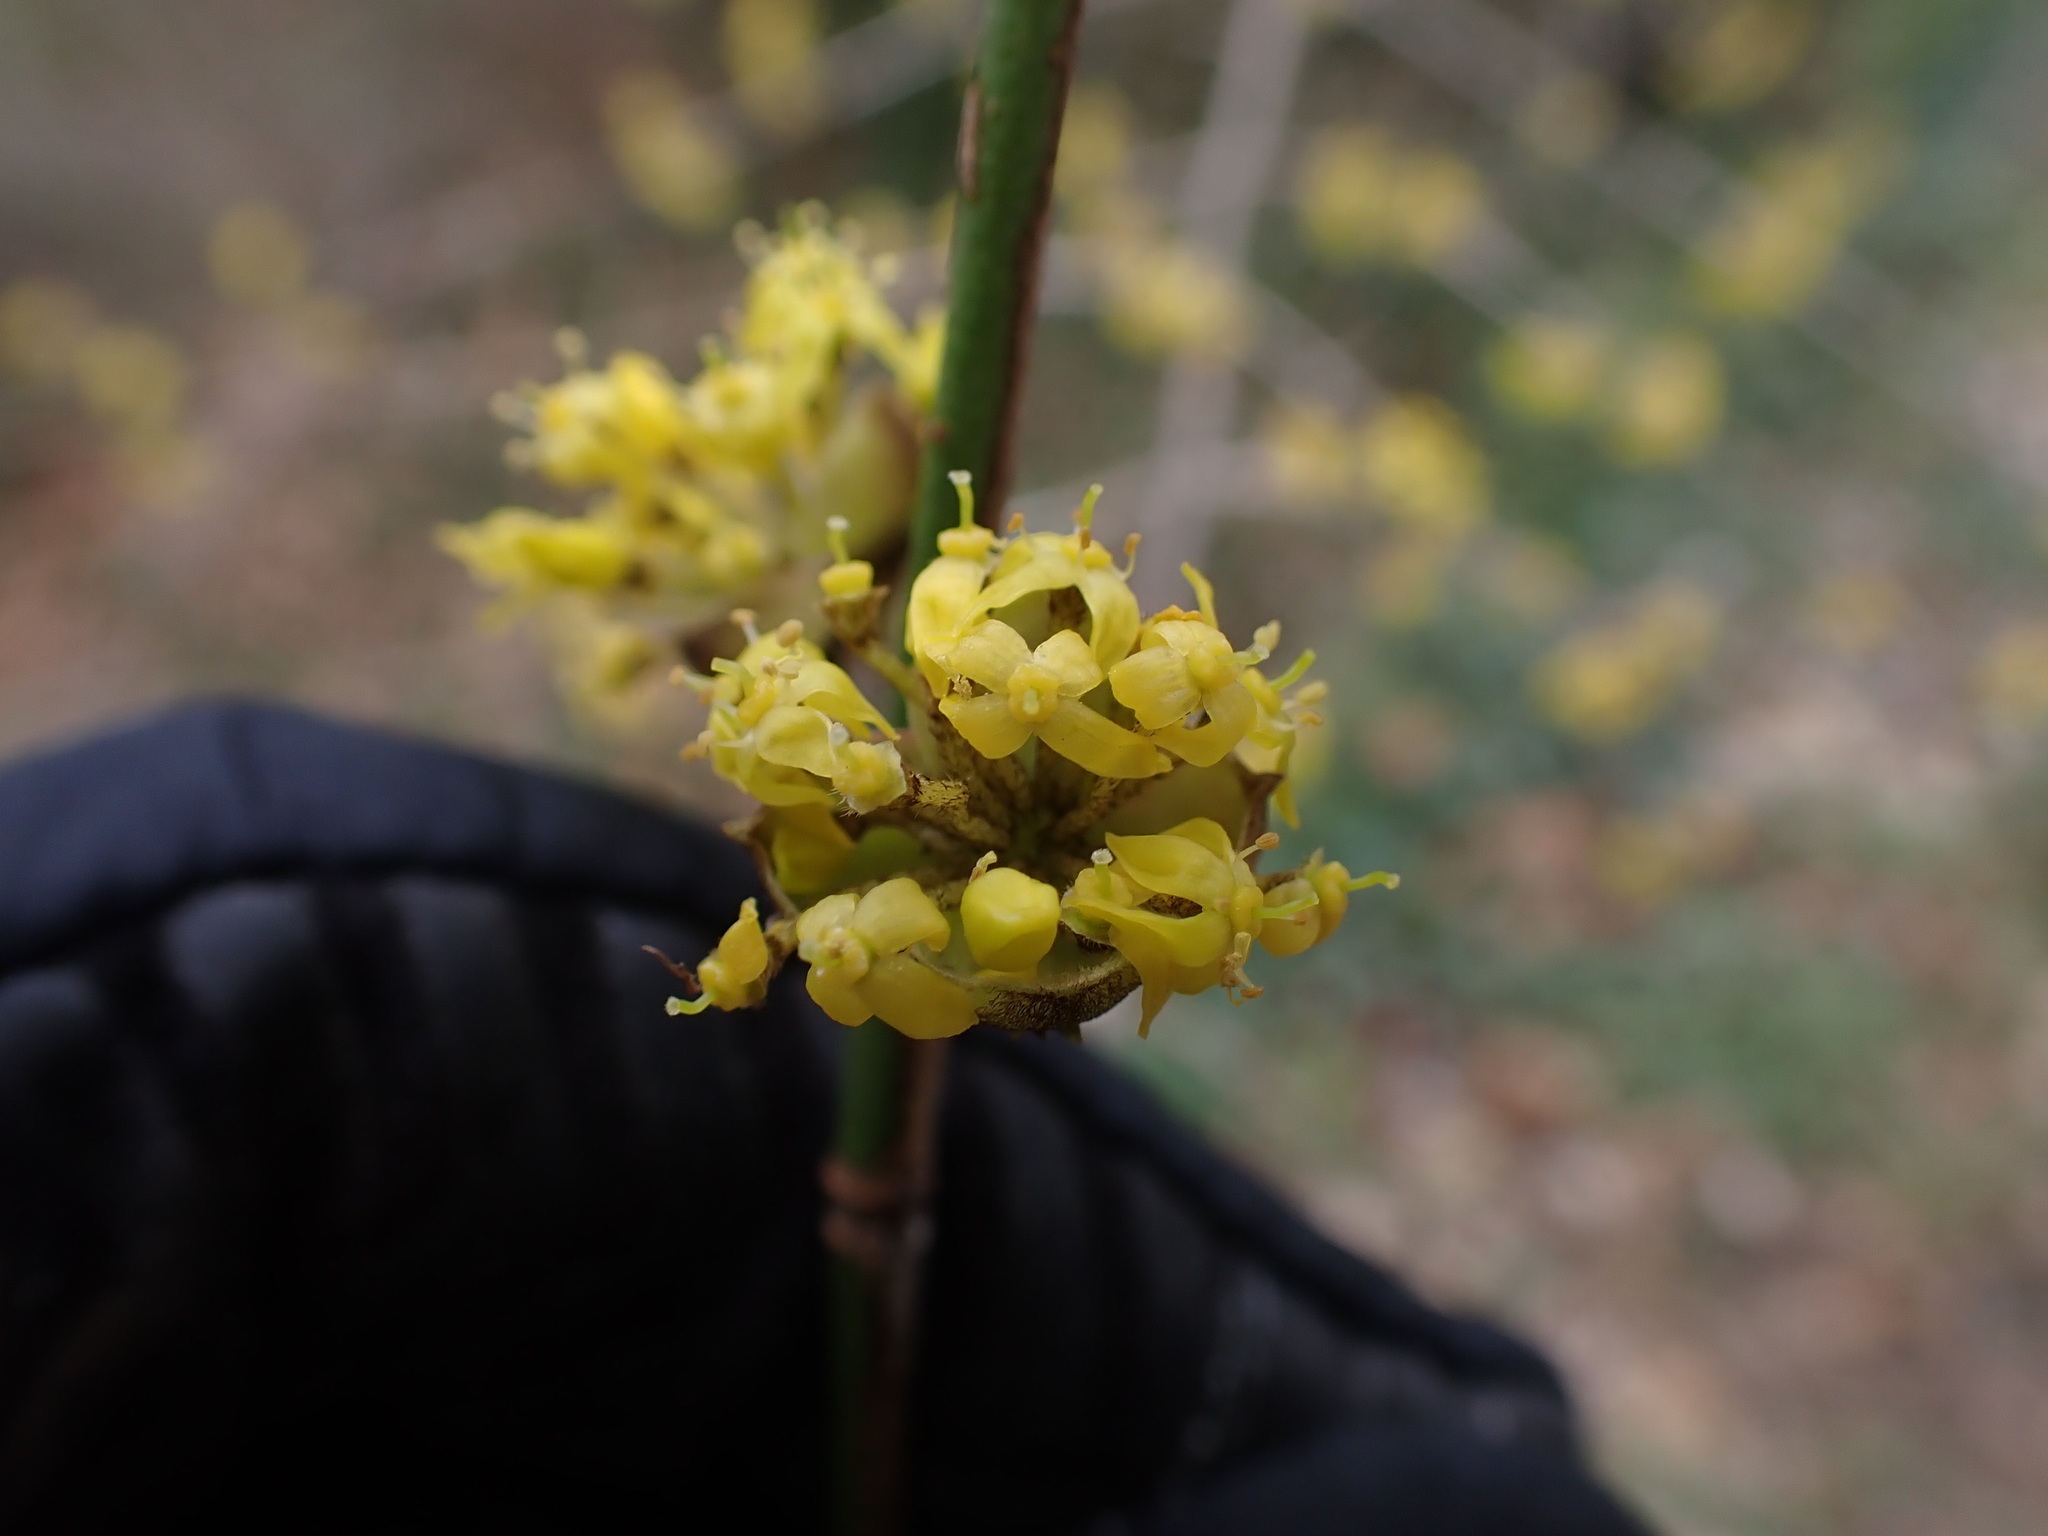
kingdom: Plantae
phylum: Tracheophyta
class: Magnoliopsida
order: Cornales
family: Cornaceae
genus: Cornus
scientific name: Cornus mas
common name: Cornelian-cherry
